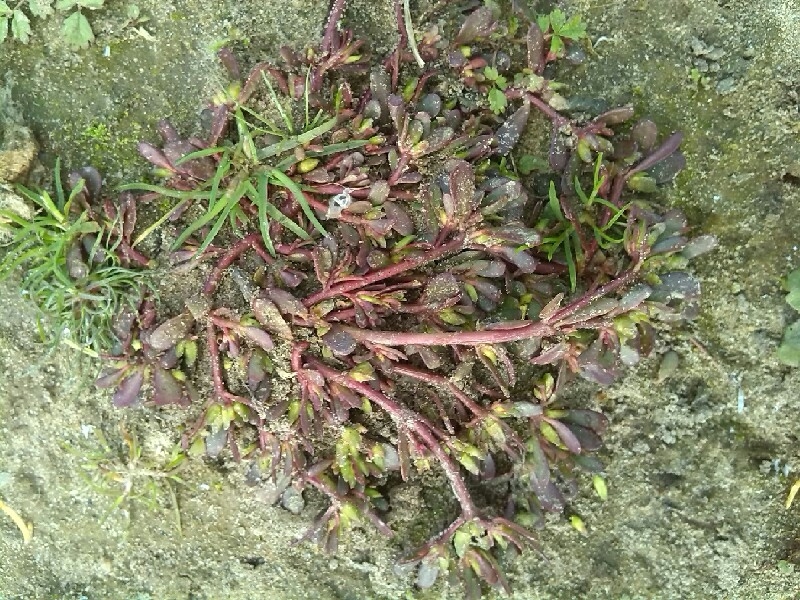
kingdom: Plantae
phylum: Tracheophyta
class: Magnoliopsida
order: Caryophyllales
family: Portulacaceae
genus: Portulaca
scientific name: Portulaca oleracea
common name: Common purslane
